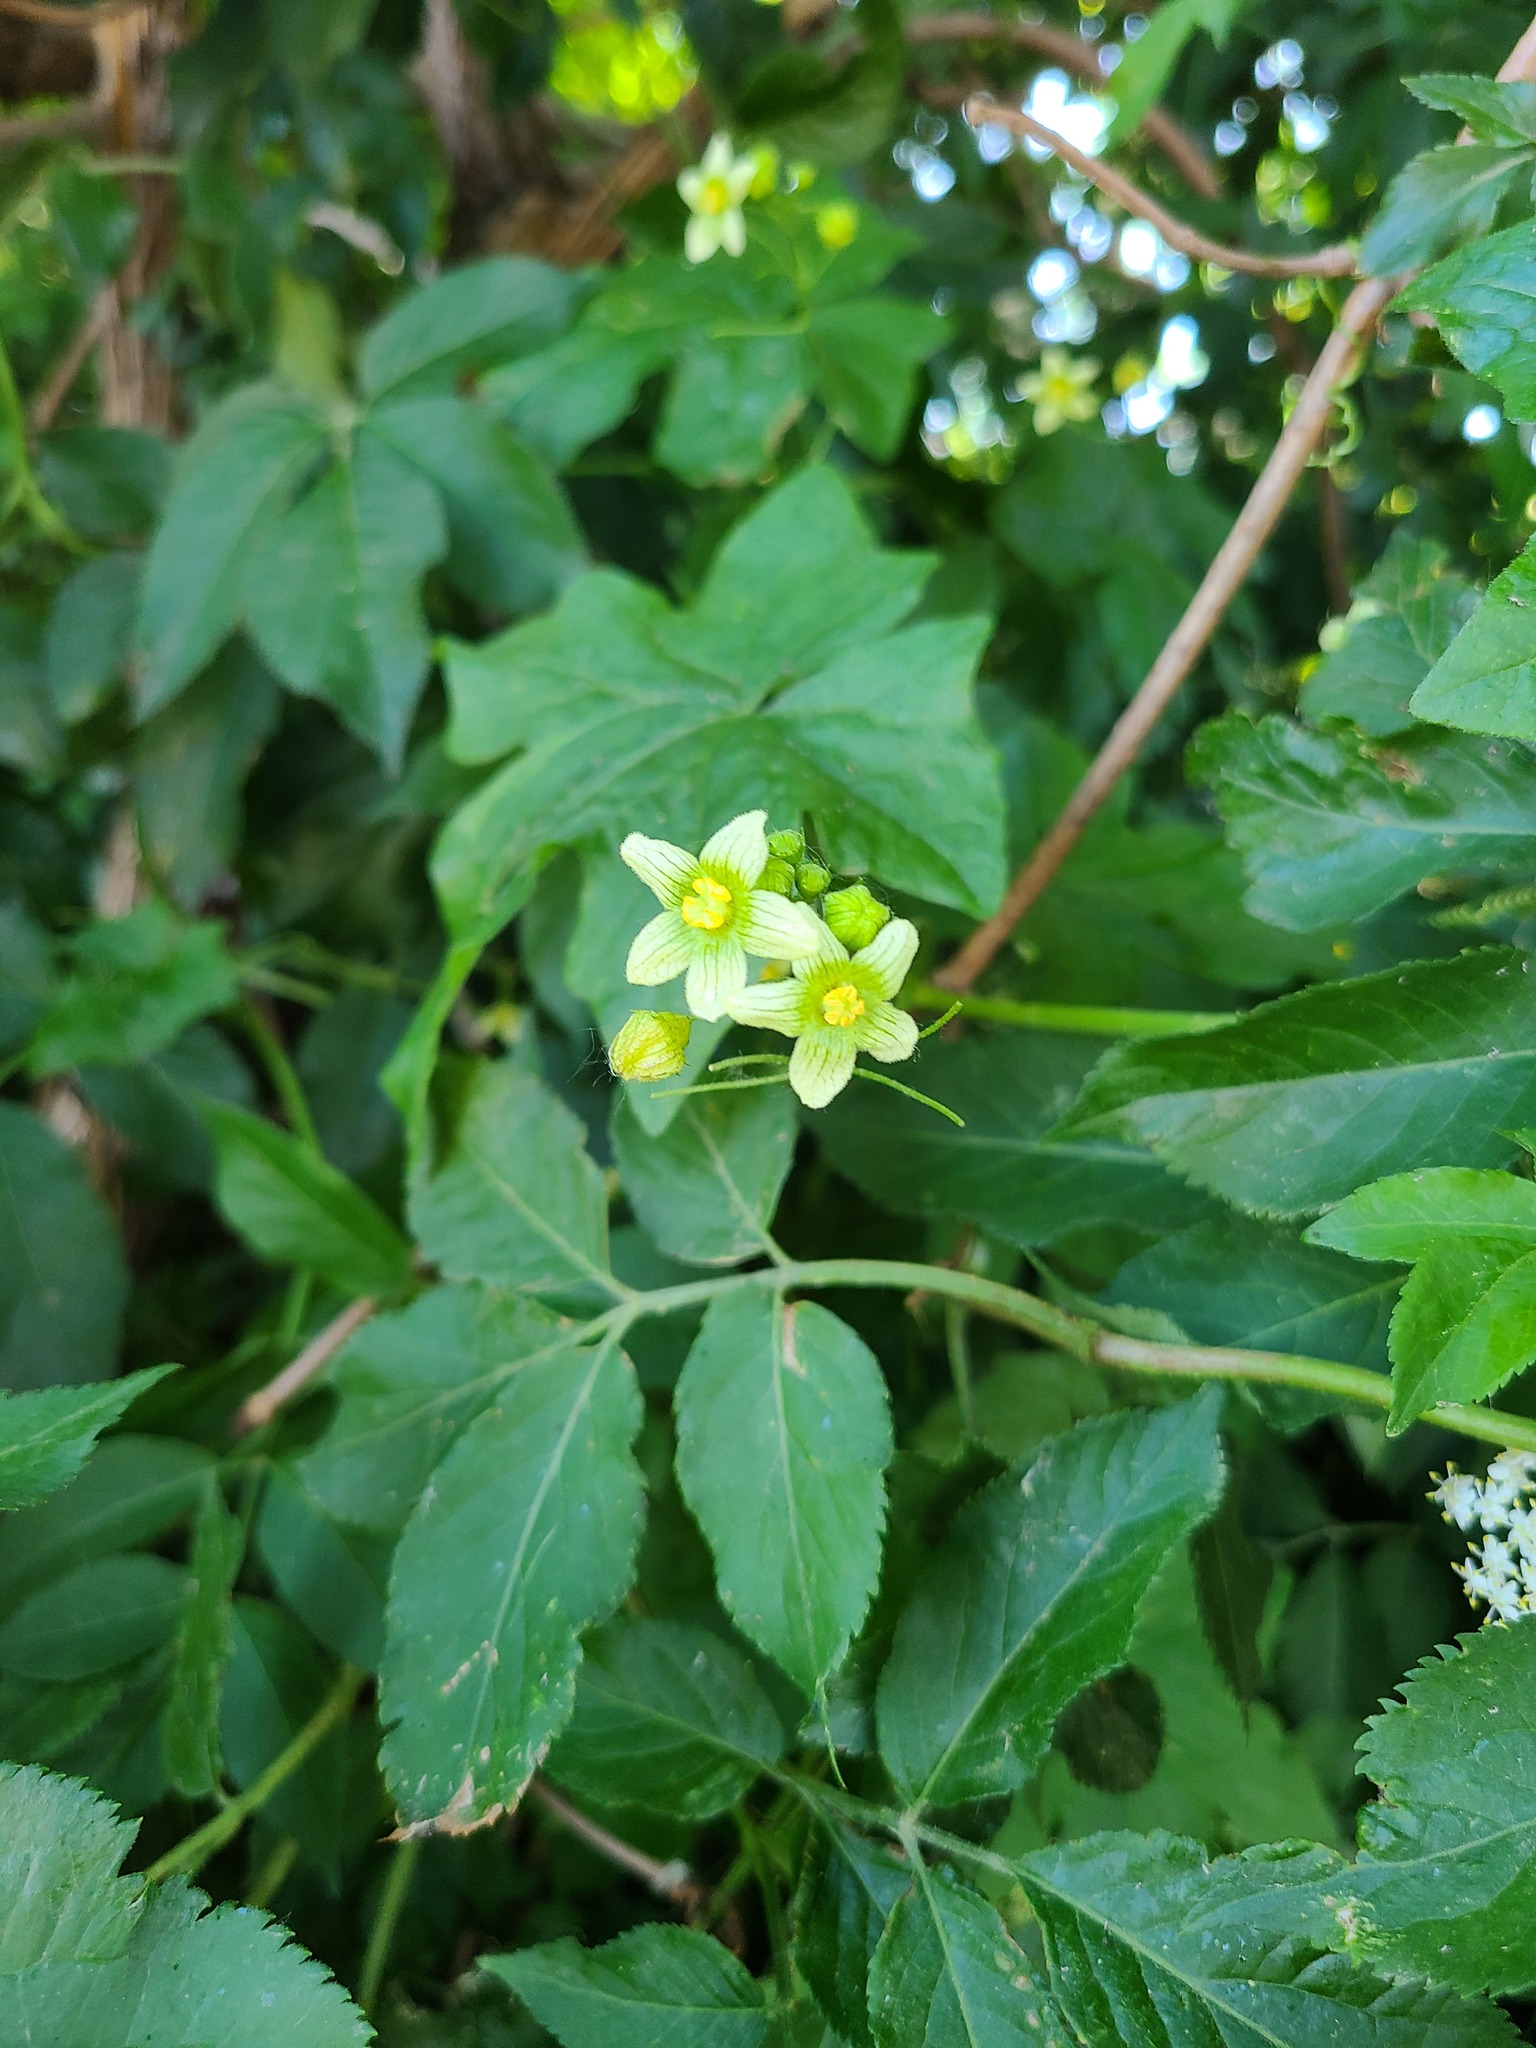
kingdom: Plantae
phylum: Tracheophyta
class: Magnoliopsida
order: Cucurbitales
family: Cucurbitaceae
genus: Bryonia
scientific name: Bryonia cretica
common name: Cretan bryony
